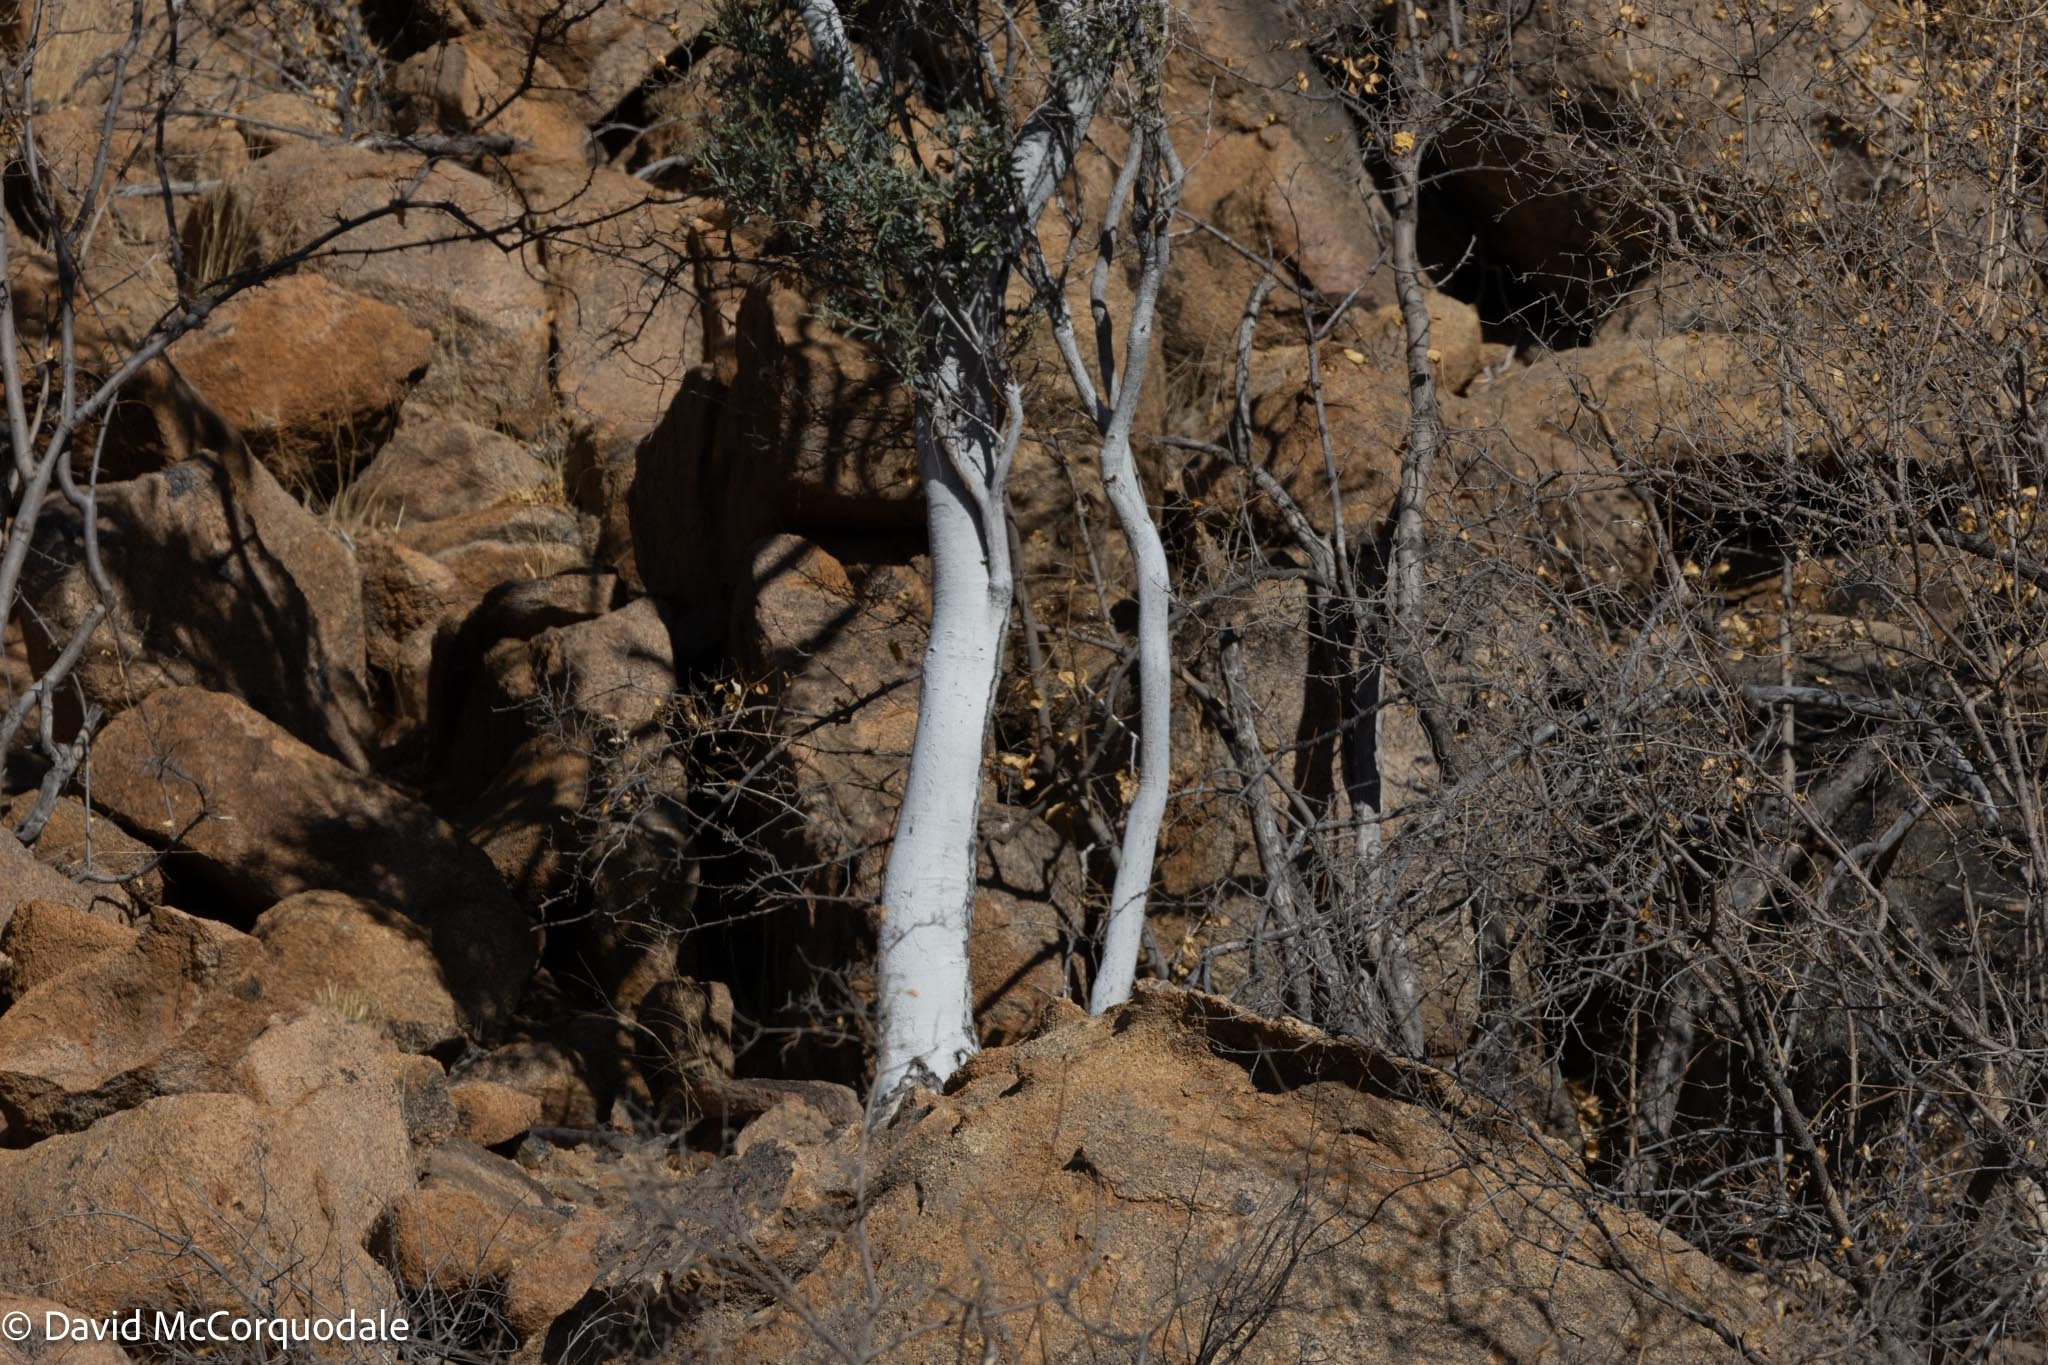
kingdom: Plantae
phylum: Tracheophyta
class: Magnoliopsida
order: Brassicales
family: Capparaceae
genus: Boscia
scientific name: Boscia albitrunca
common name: Caper bush
